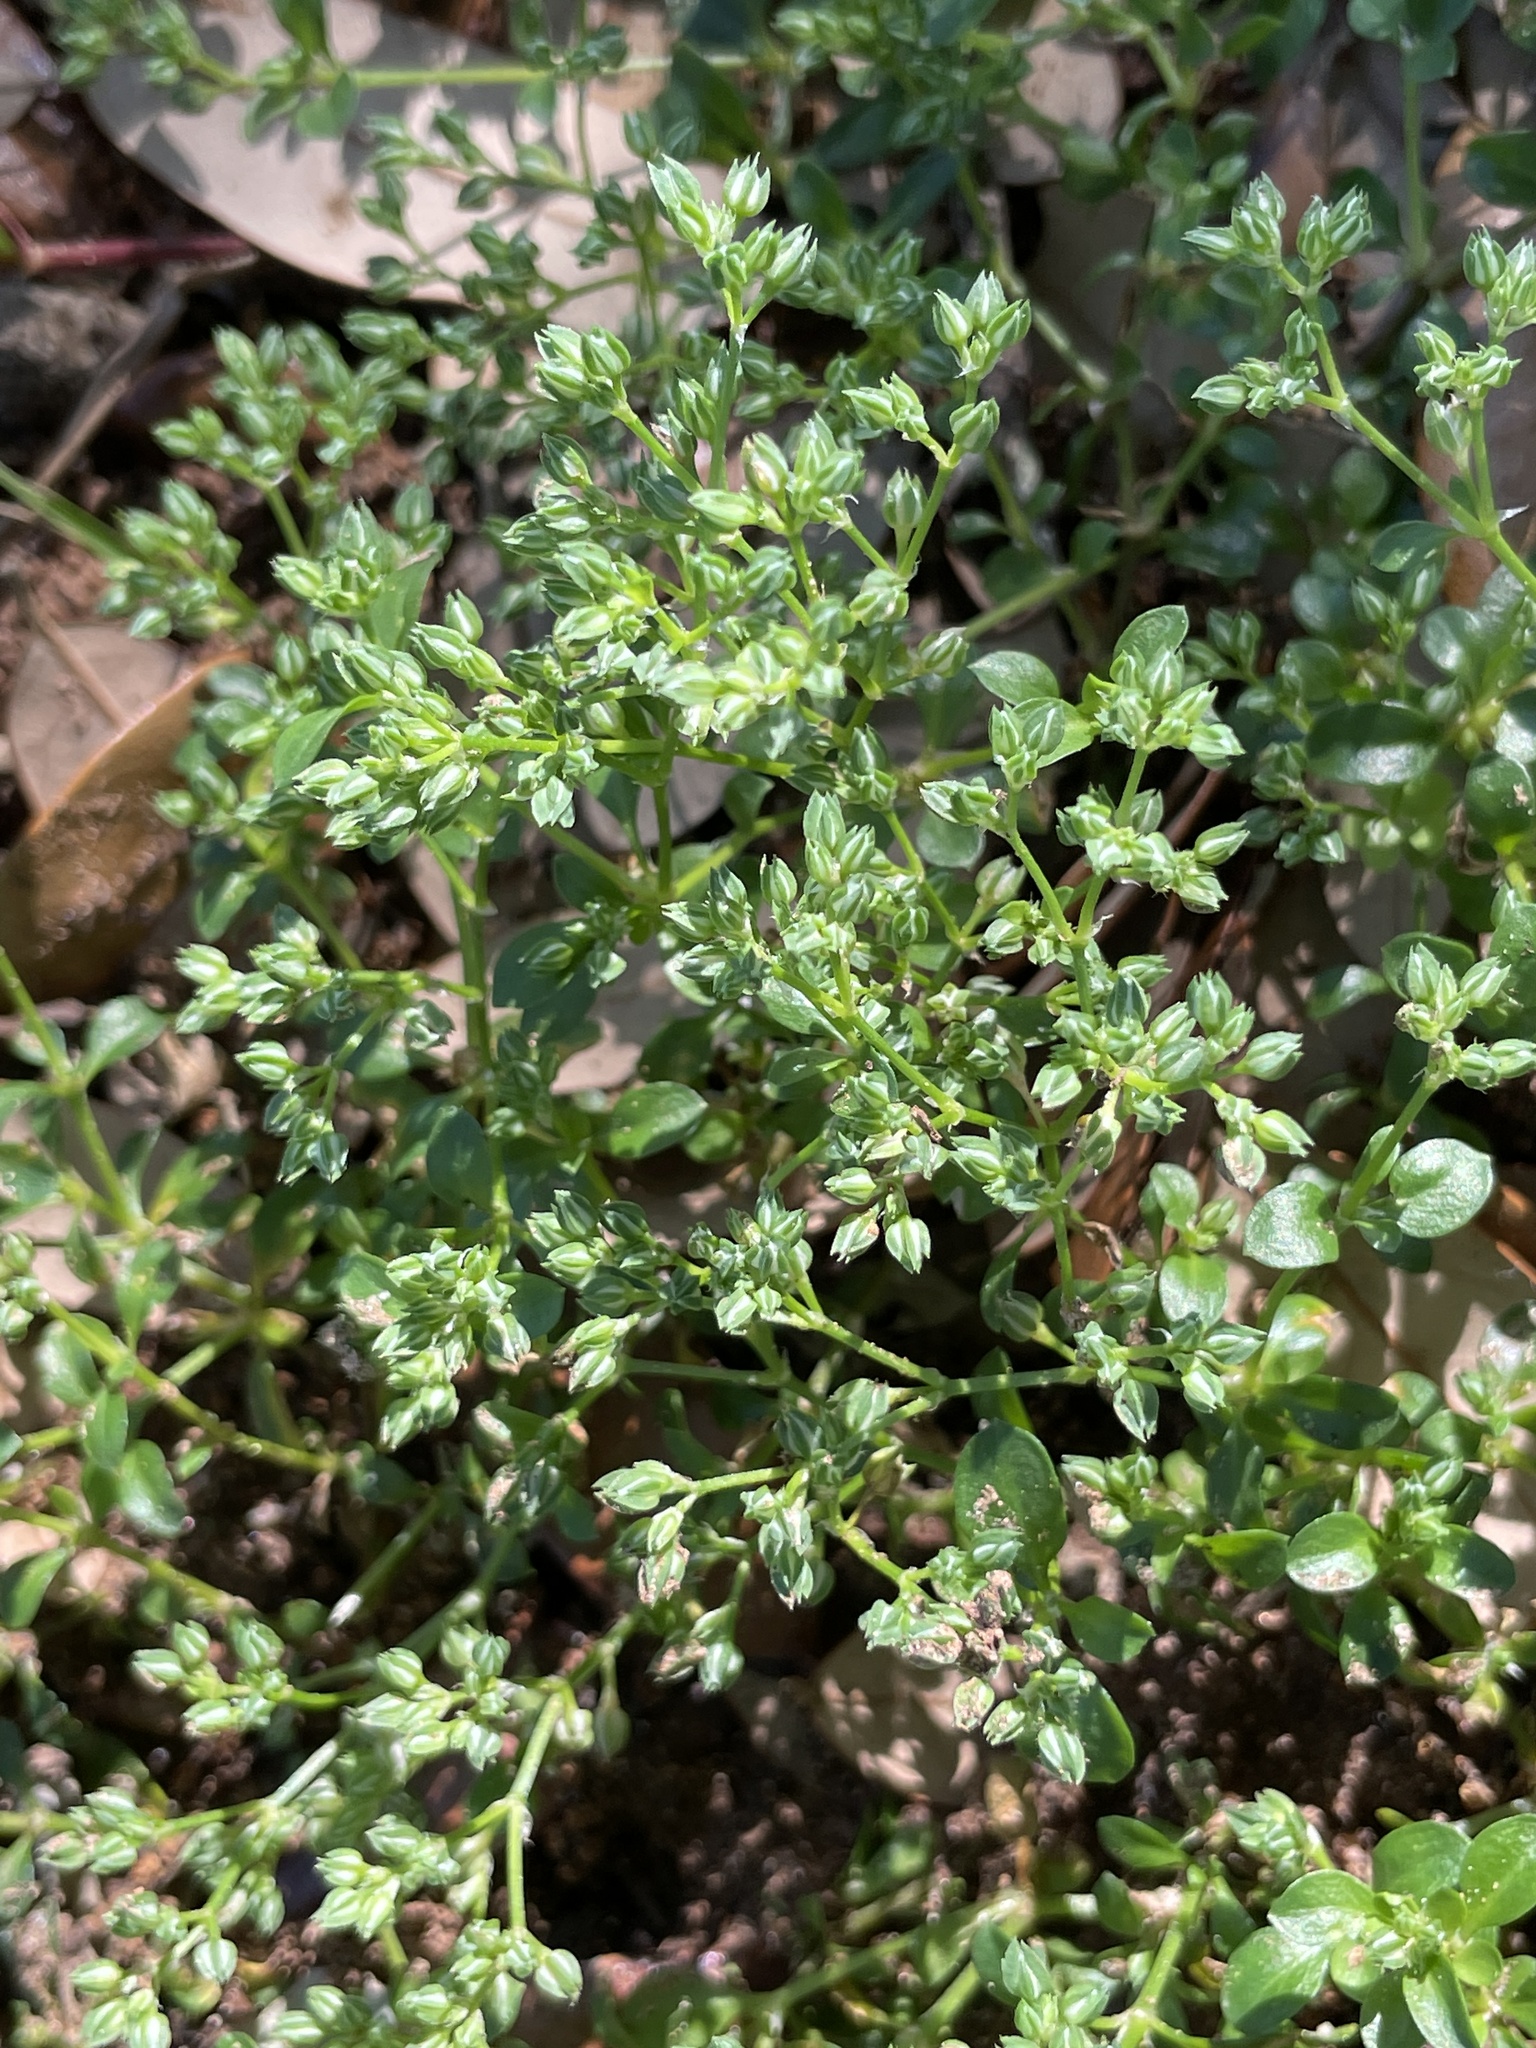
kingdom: Plantae
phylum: Tracheophyta
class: Magnoliopsida
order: Caryophyllales
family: Caryophyllaceae
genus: Polycarpon
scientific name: Polycarpon tetraphyllum
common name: Four-leaved all-seed
